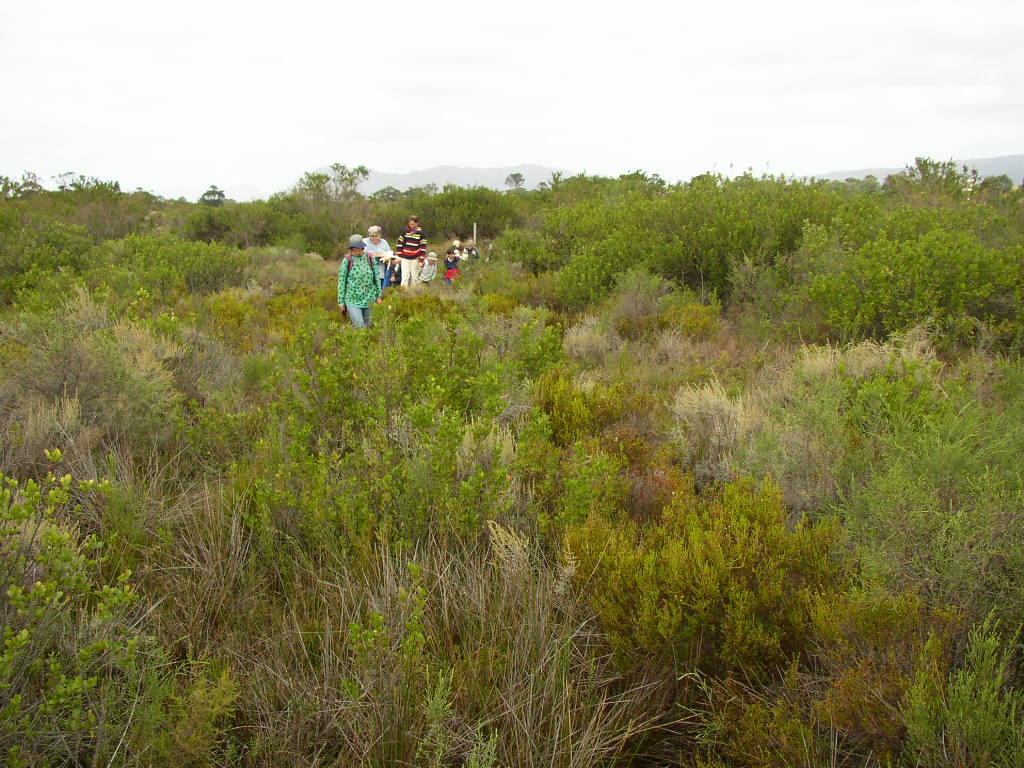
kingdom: Plantae
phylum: Tracheophyta
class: Magnoliopsida
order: Sapindales
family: Anacardiaceae
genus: Searsia
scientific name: Searsia lucida
